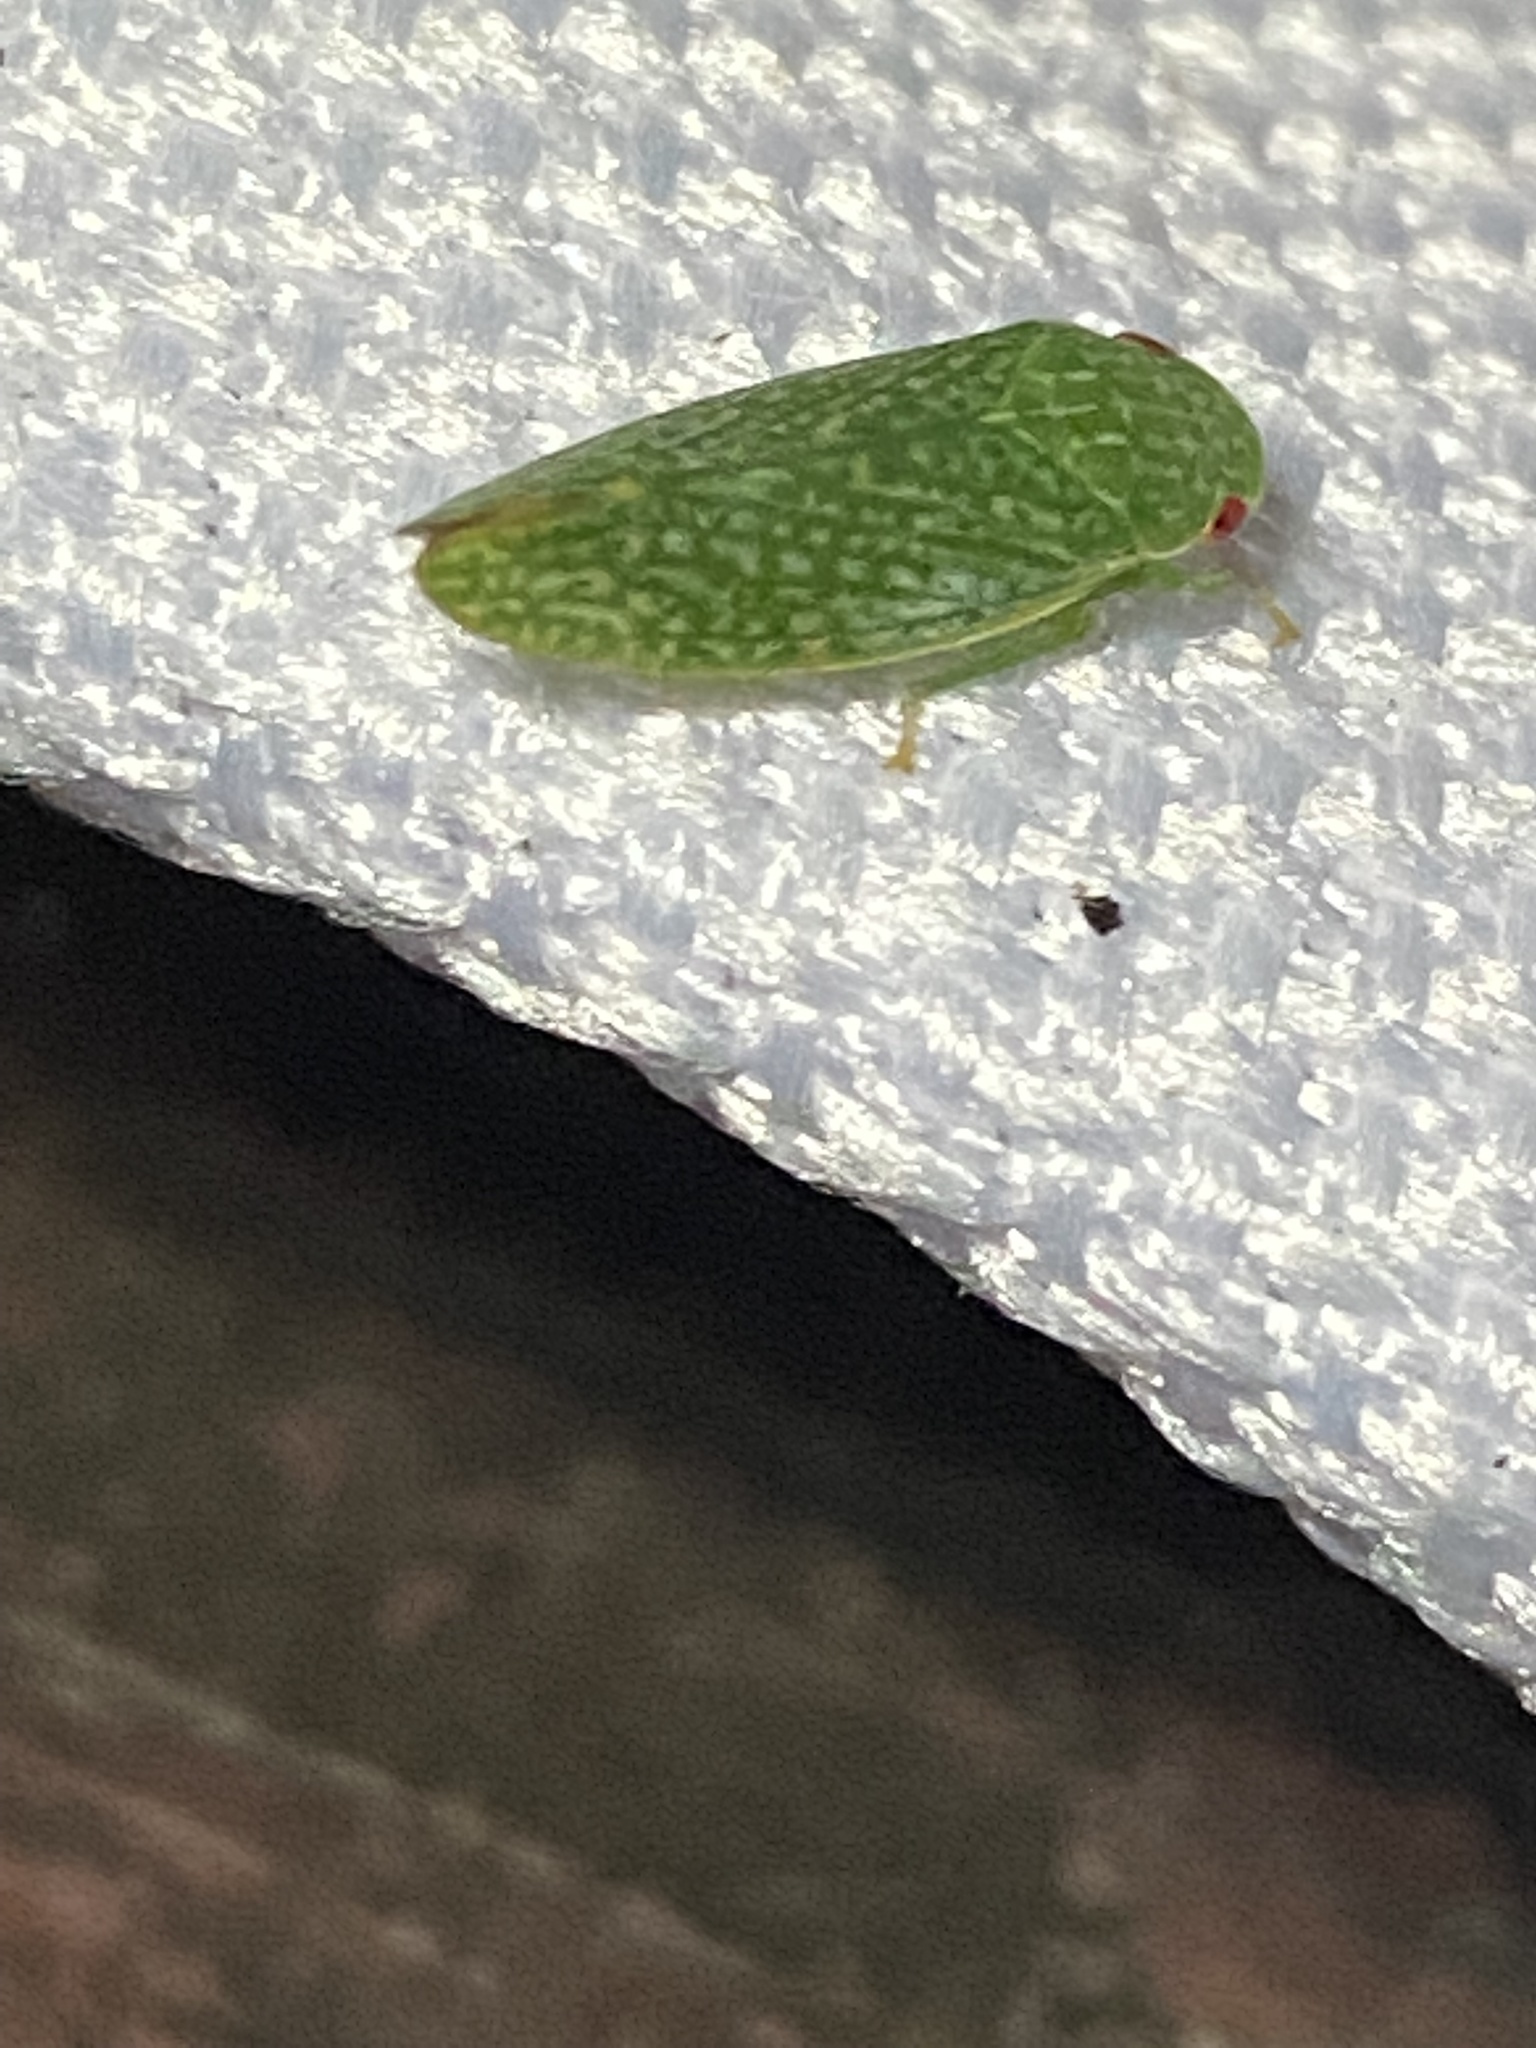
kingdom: Animalia
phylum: Arthropoda
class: Insecta
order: Hemiptera
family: Cicadellidae
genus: Rugosana
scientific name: Rugosana querci
